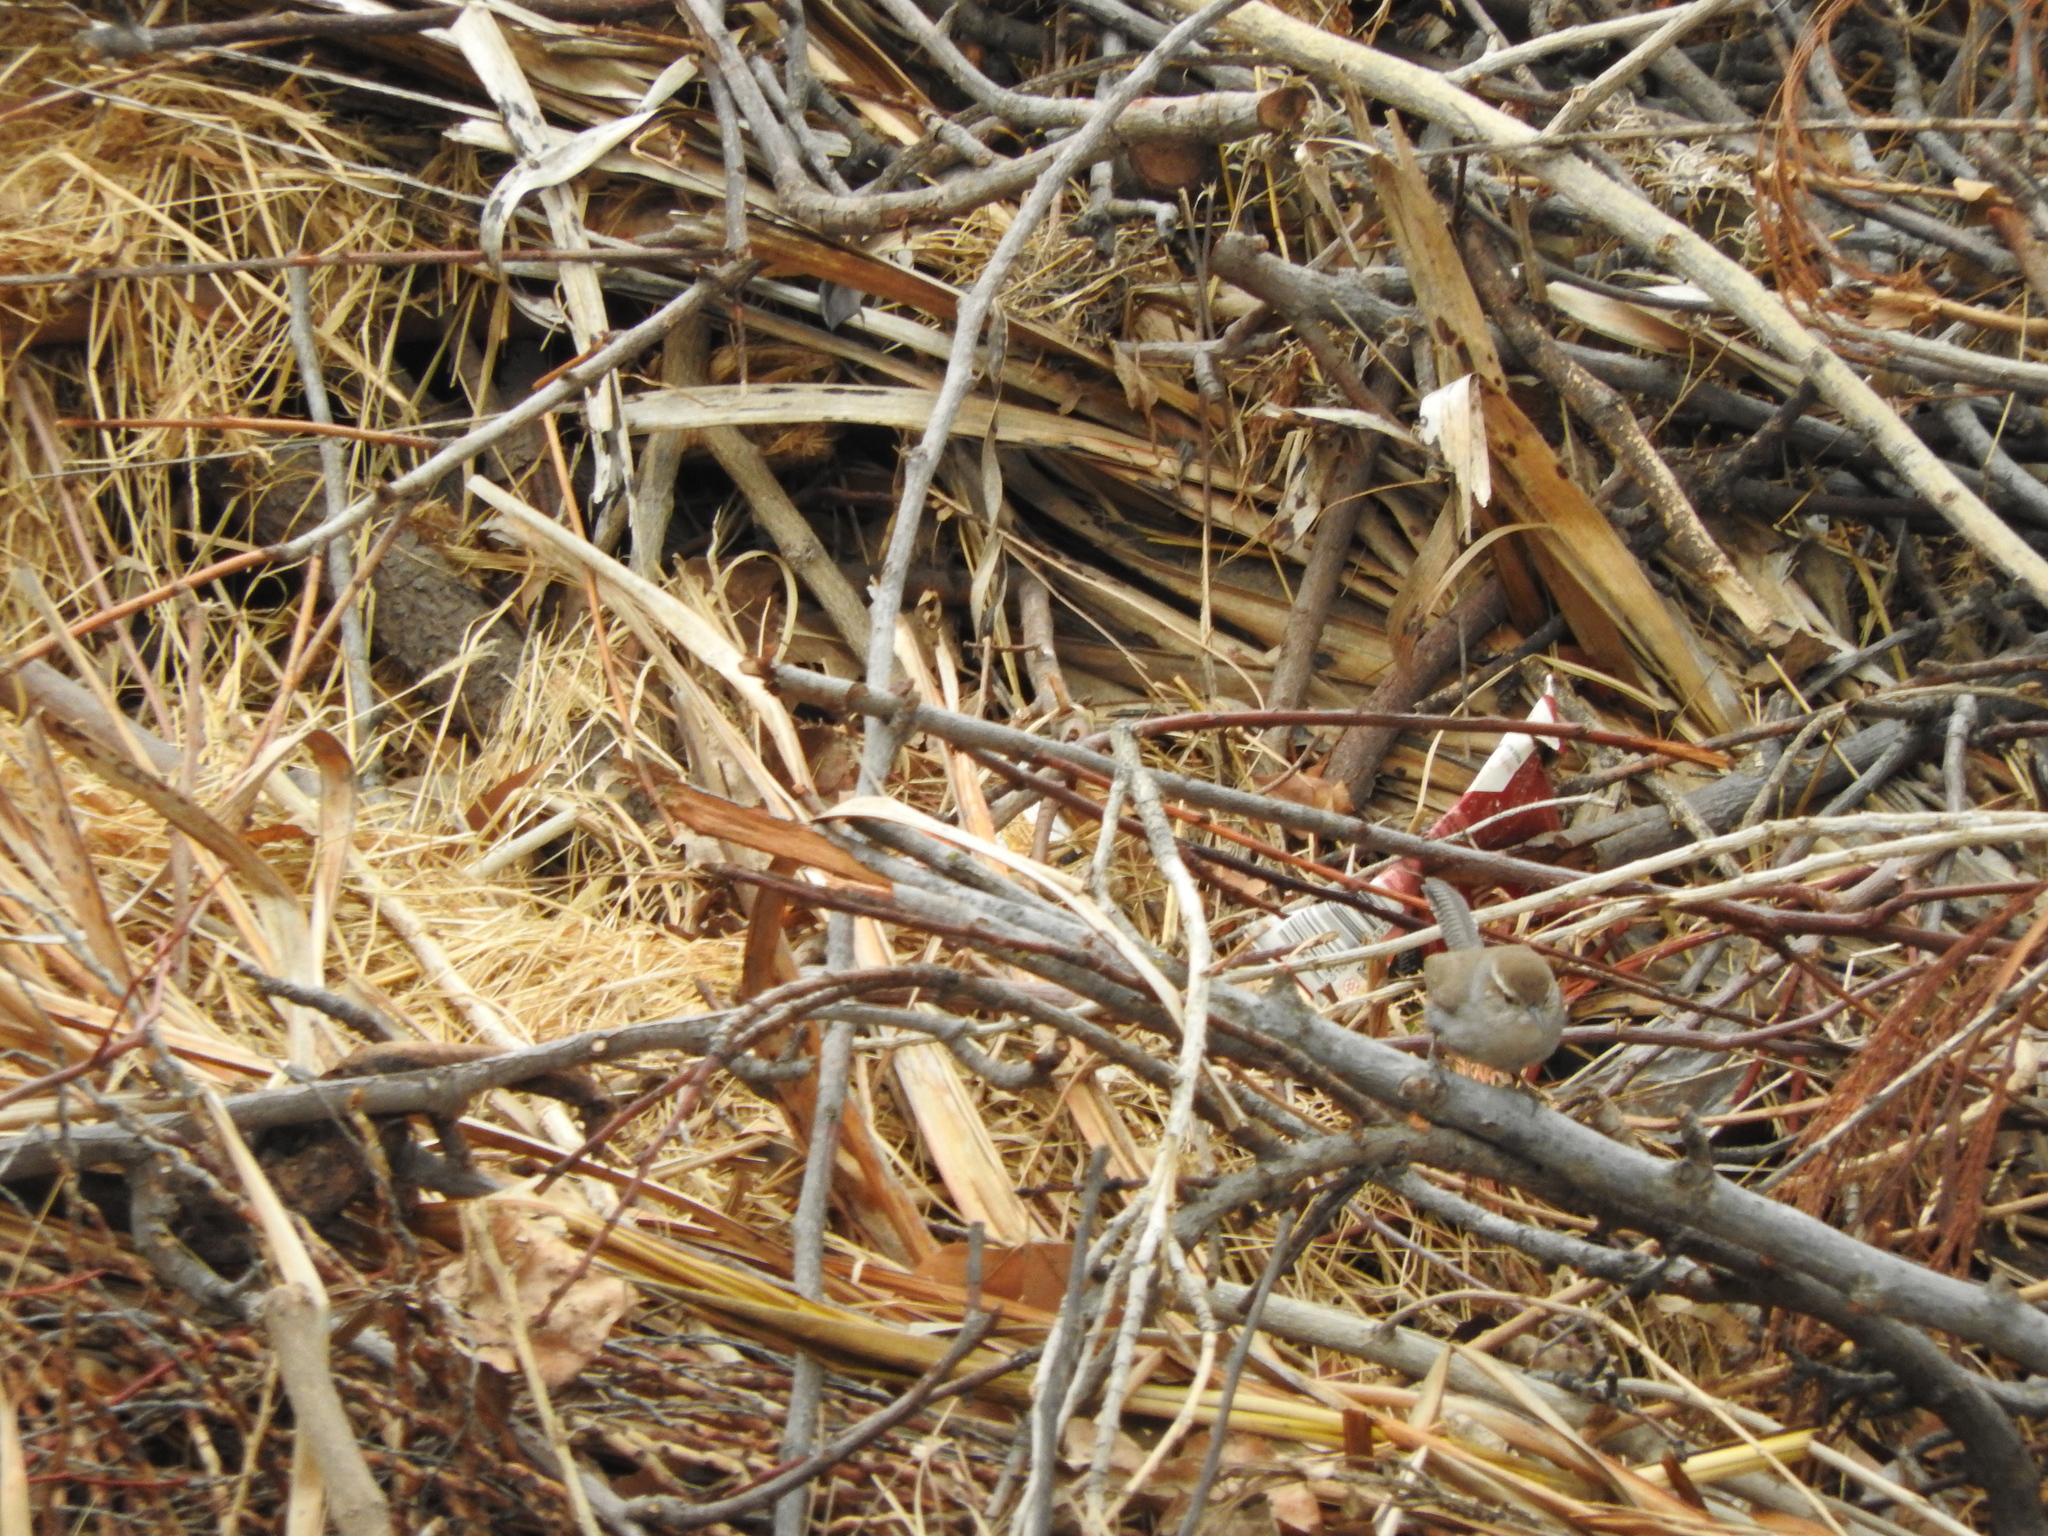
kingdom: Animalia
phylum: Chordata
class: Aves
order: Passeriformes
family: Troglodytidae
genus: Thryomanes
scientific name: Thryomanes bewickii
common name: Bewick's wren
